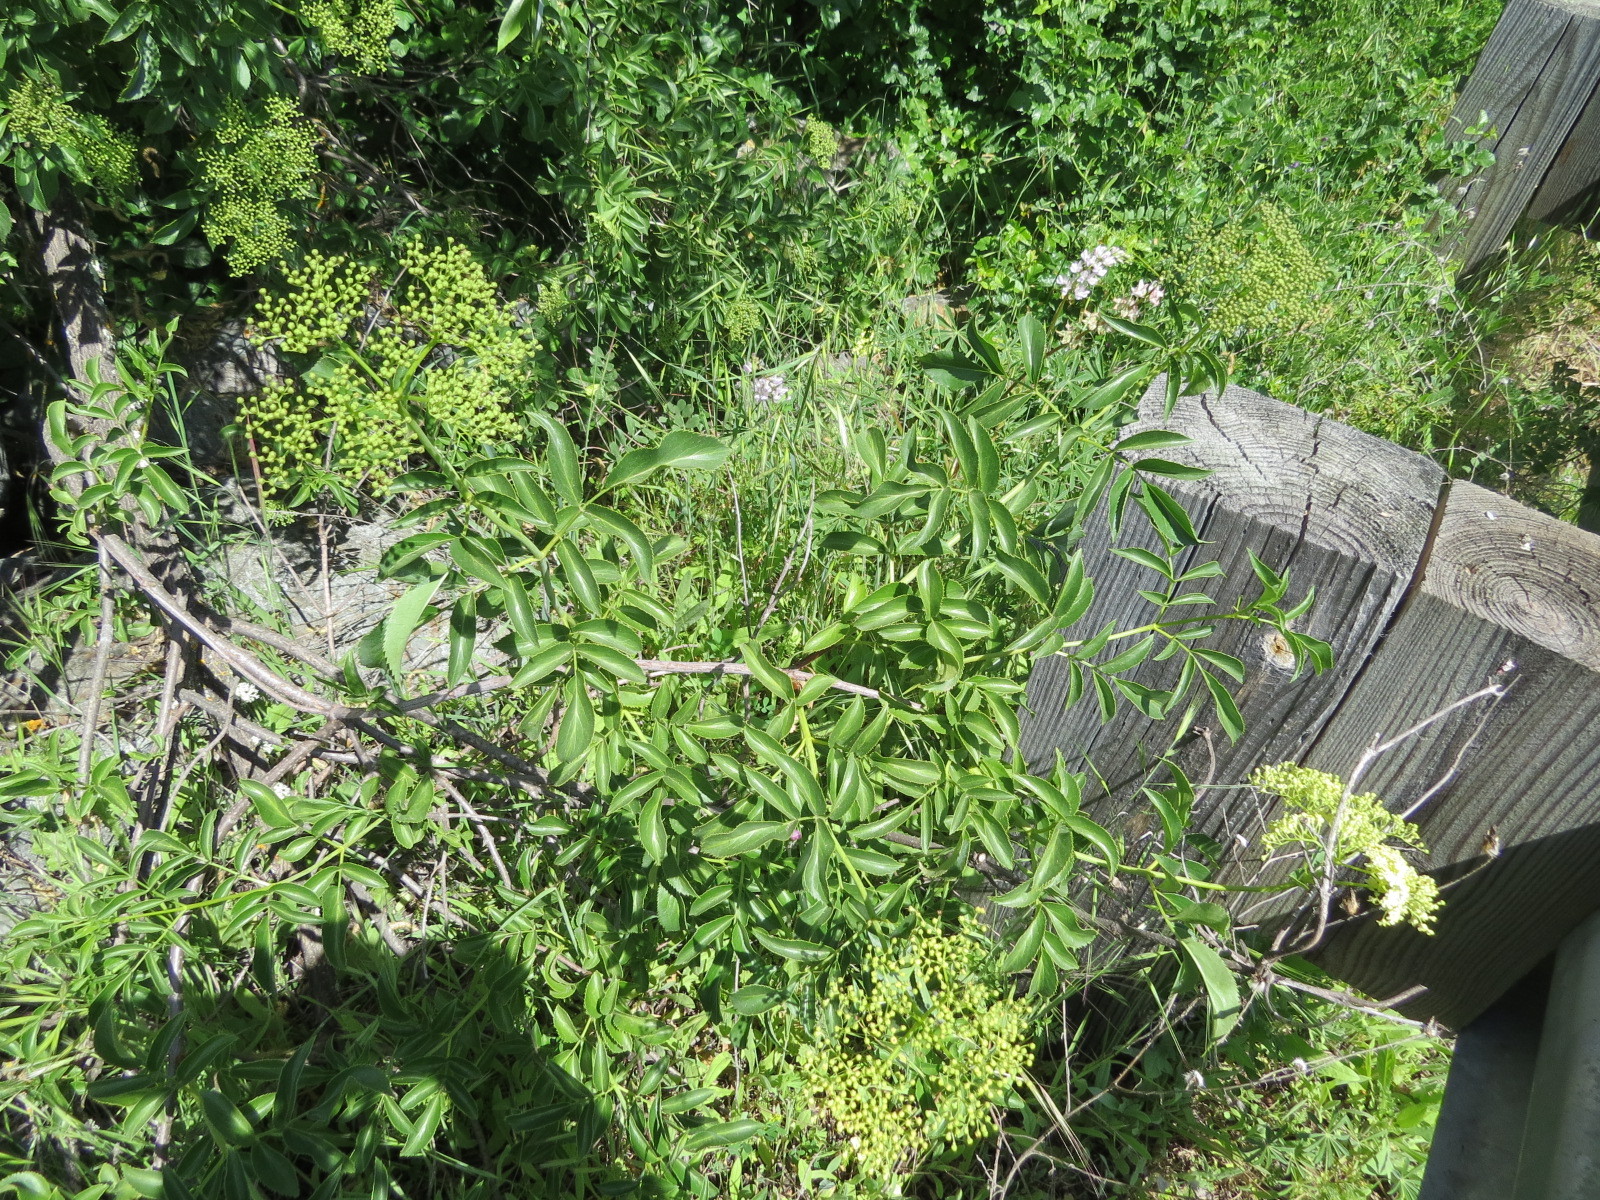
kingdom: Plantae
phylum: Tracheophyta
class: Magnoliopsida
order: Dipsacales
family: Viburnaceae
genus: Sambucus
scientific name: Sambucus cerulea
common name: Blue elder
